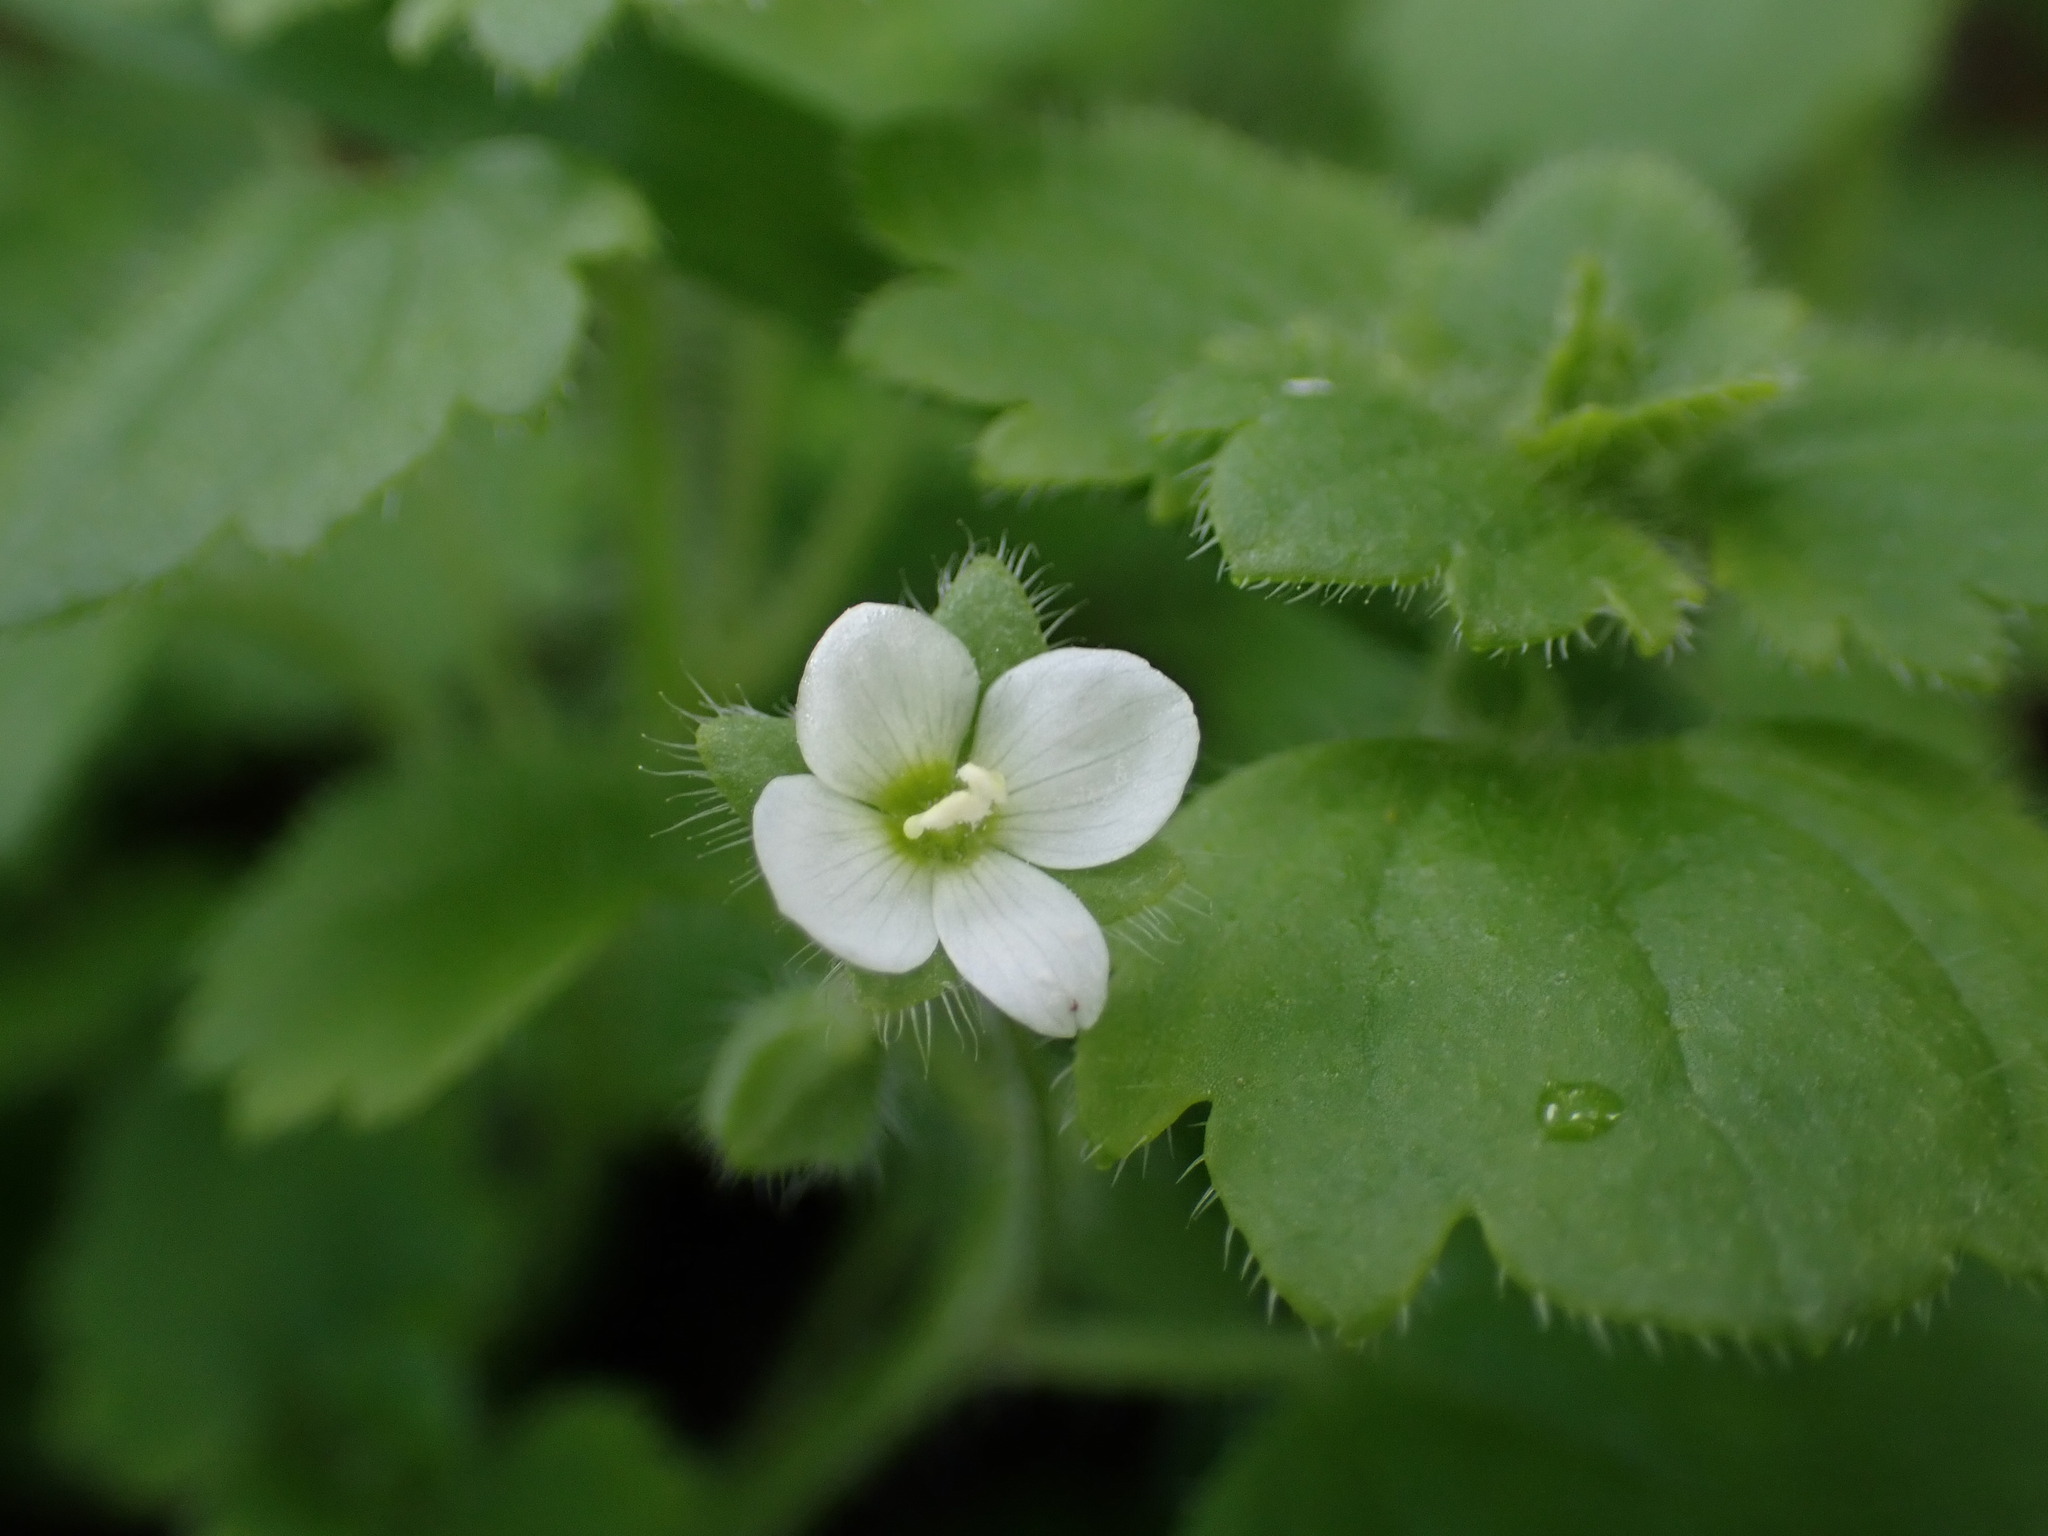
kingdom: Plantae
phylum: Tracheophyta
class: Magnoliopsida
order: Lamiales
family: Plantaginaceae
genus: Veronica
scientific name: Veronica cymbalaria
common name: Pale speedwell
